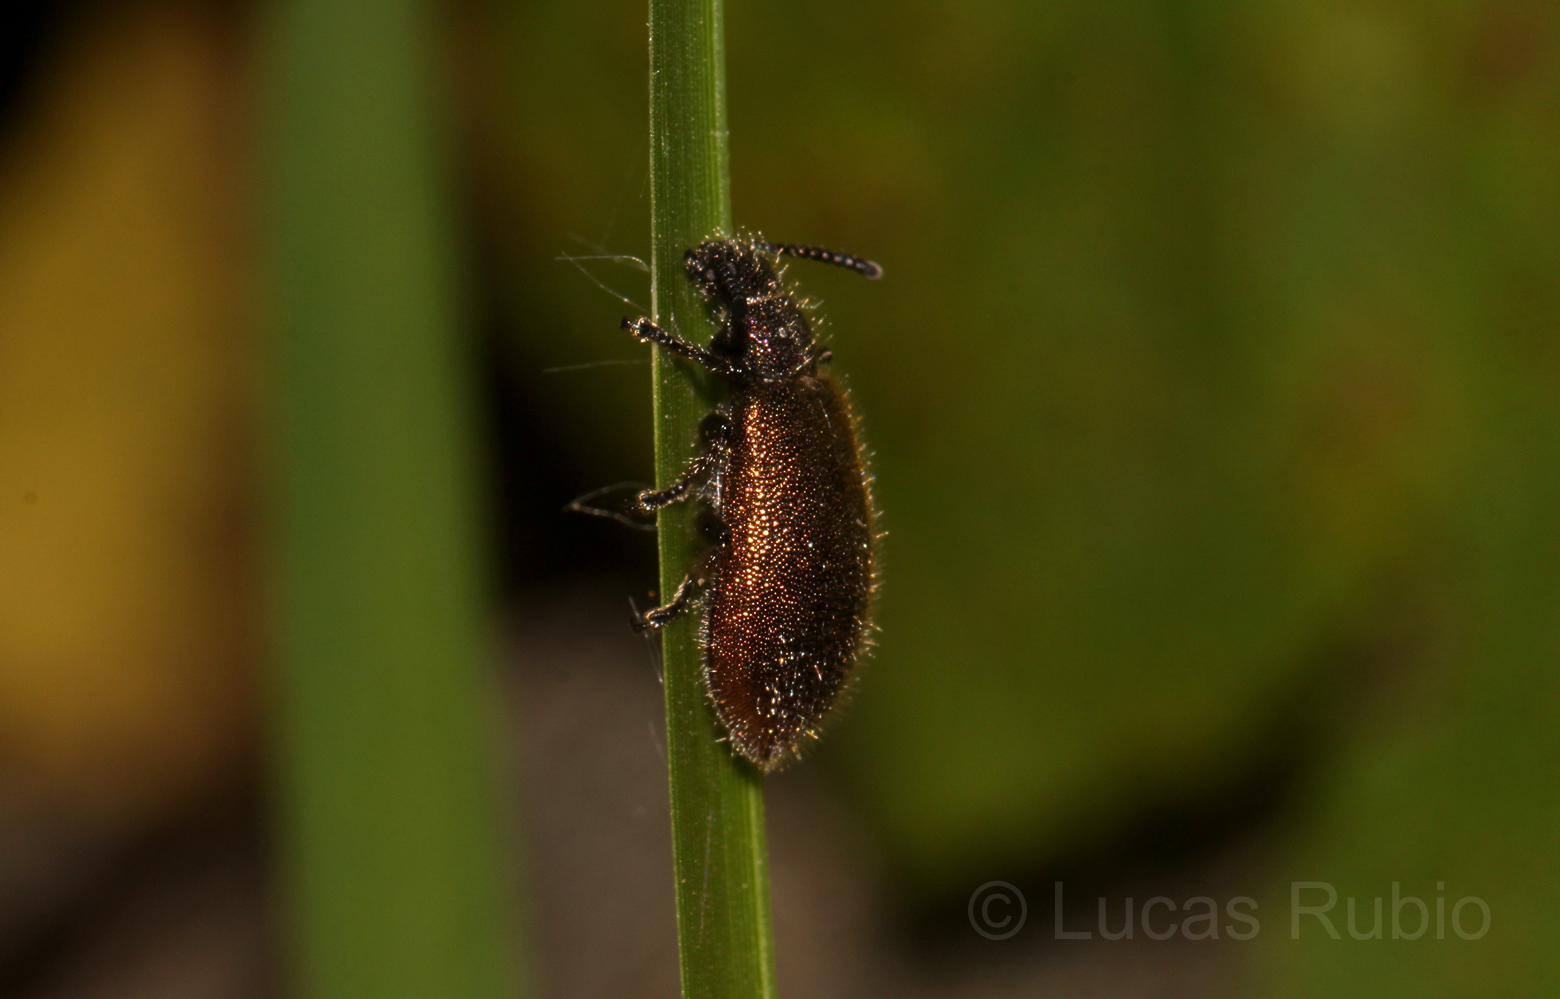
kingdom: Animalia
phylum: Arthropoda
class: Insecta
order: Coleoptera
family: Tenebrionidae
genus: Lagria
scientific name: Lagria villosa
